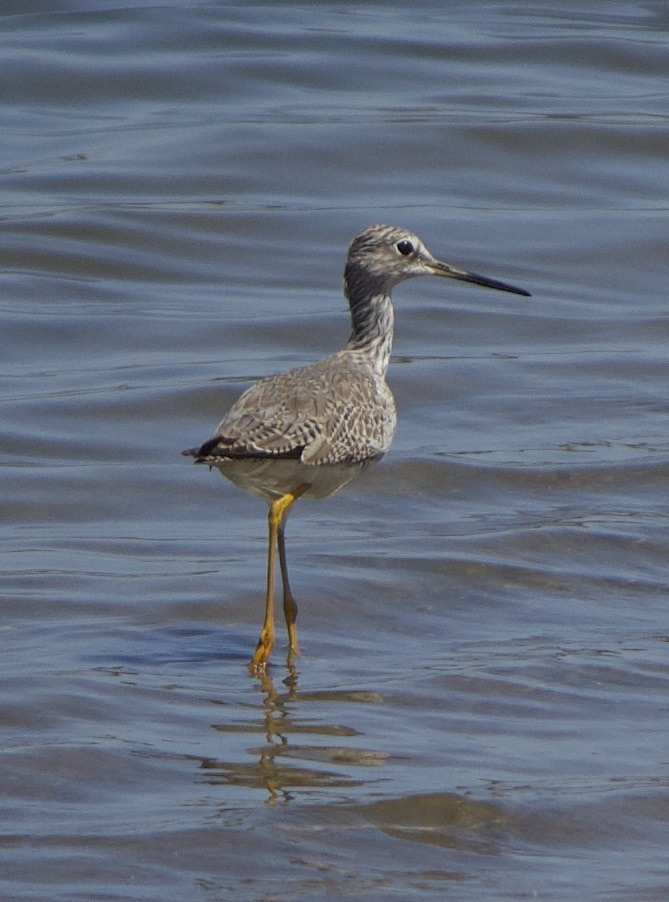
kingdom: Animalia
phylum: Chordata
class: Aves
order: Charadriiformes
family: Scolopacidae
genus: Tringa
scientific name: Tringa melanoleuca
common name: Greater yellowlegs
